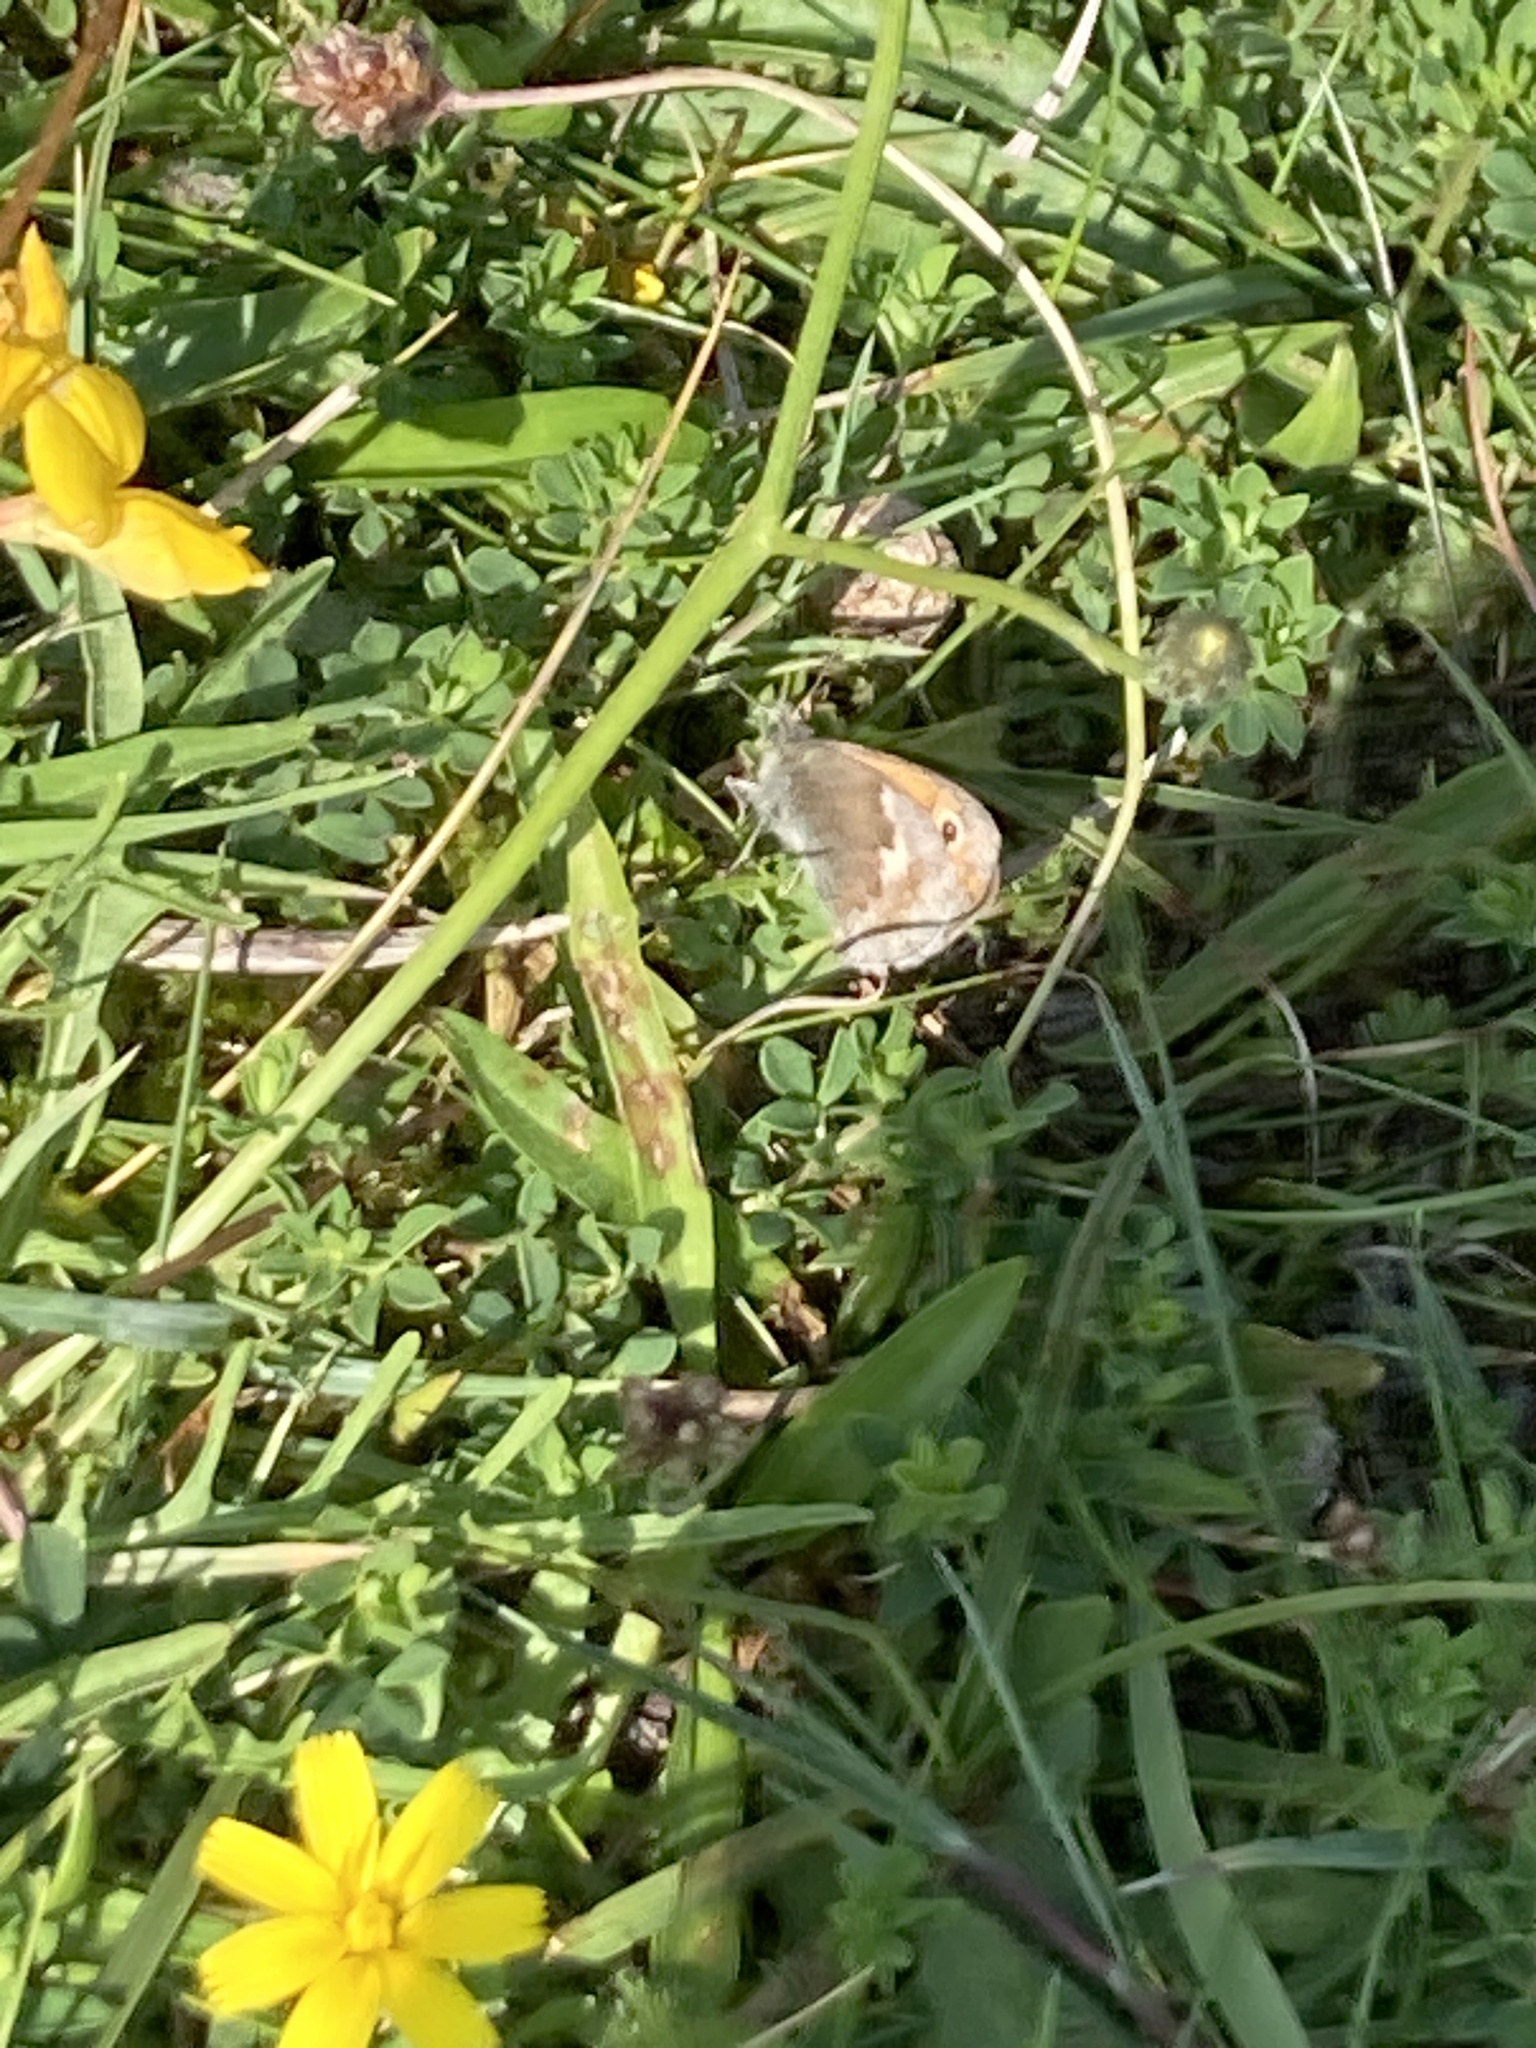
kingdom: Animalia
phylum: Arthropoda
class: Insecta
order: Lepidoptera
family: Nymphalidae
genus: Coenonympha
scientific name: Coenonympha pamphilus
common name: Small heath
